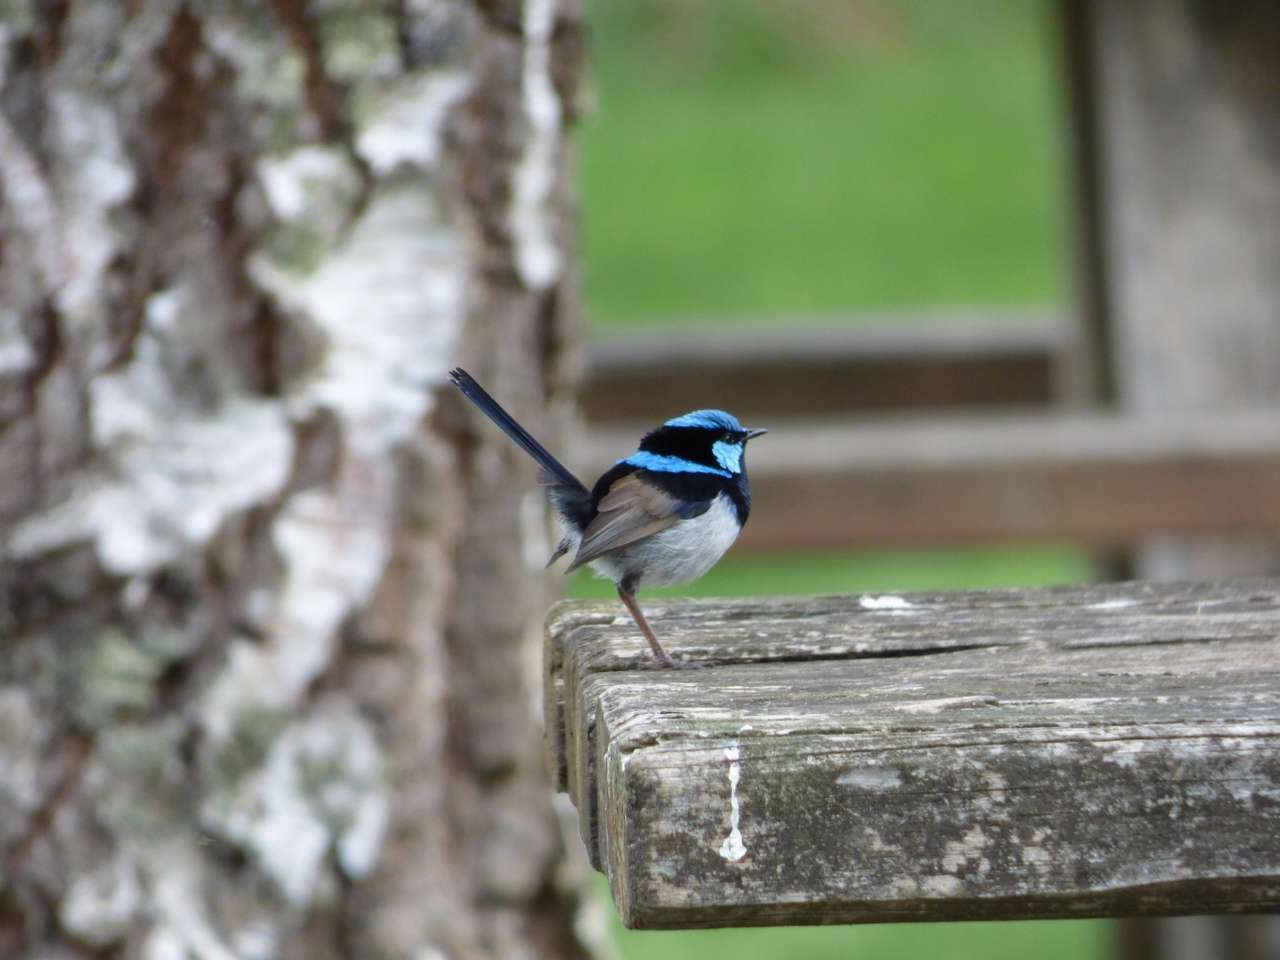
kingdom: Animalia
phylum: Chordata
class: Aves
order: Passeriformes
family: Maluridae
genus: Malurus
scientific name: Malurus cyaneus
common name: Superb fairywren
